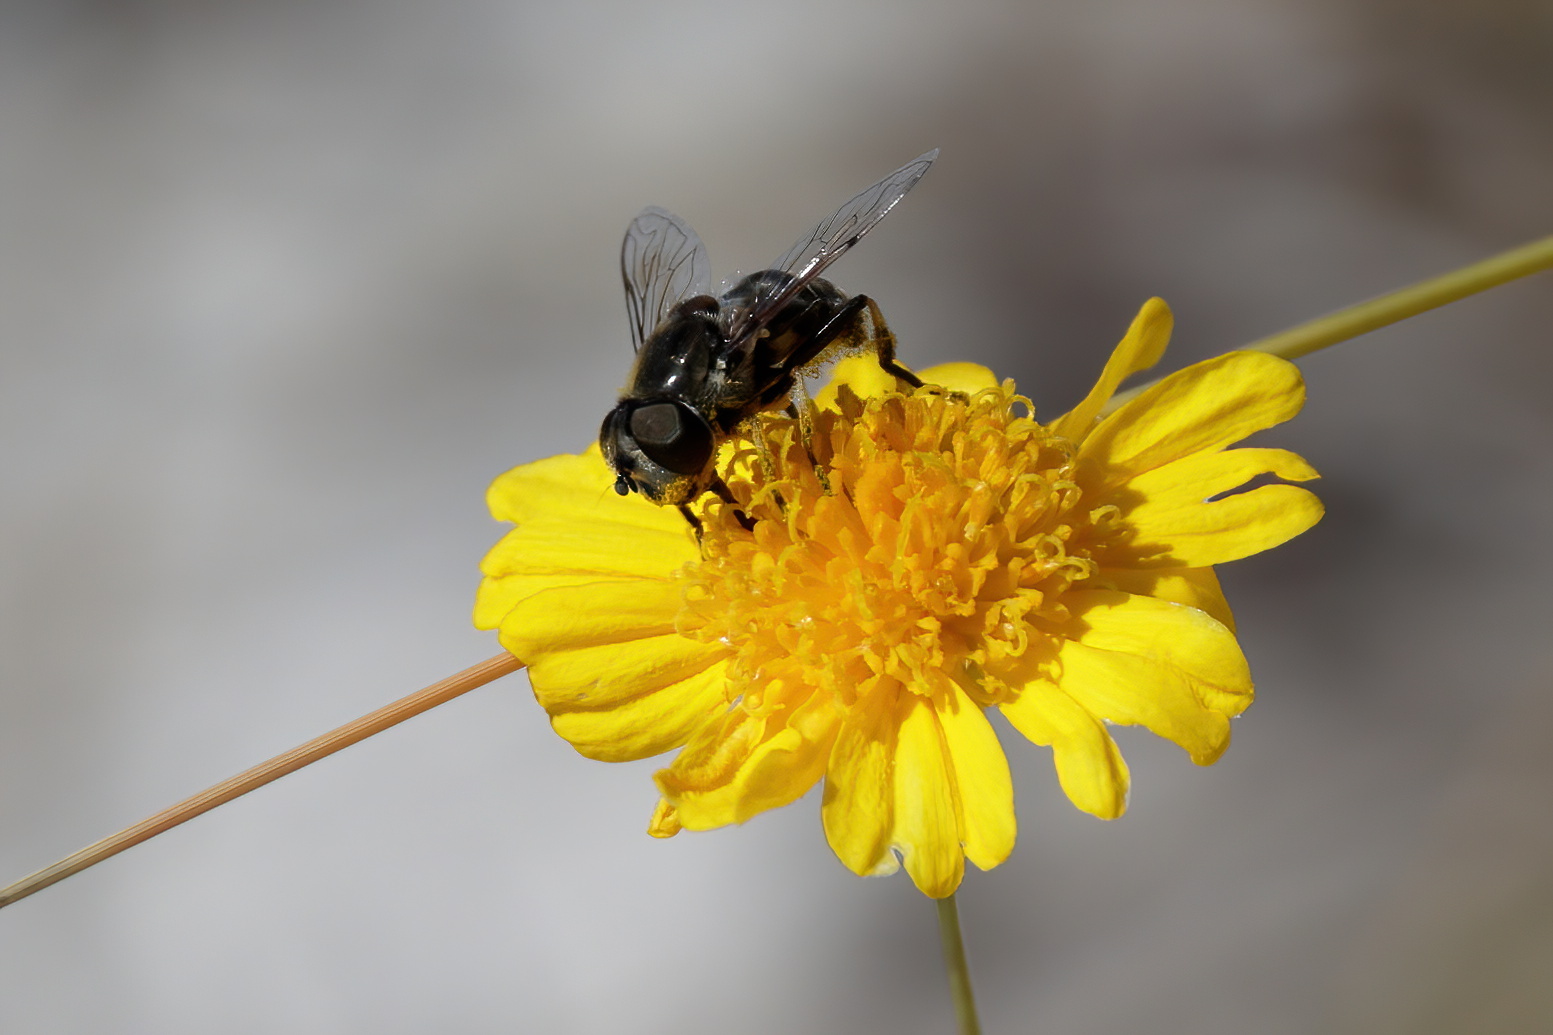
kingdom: Animalia
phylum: Arthropoda
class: Insecta
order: Diptera
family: Syrphidae
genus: Eristalis
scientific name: Eristalis dimidiata
